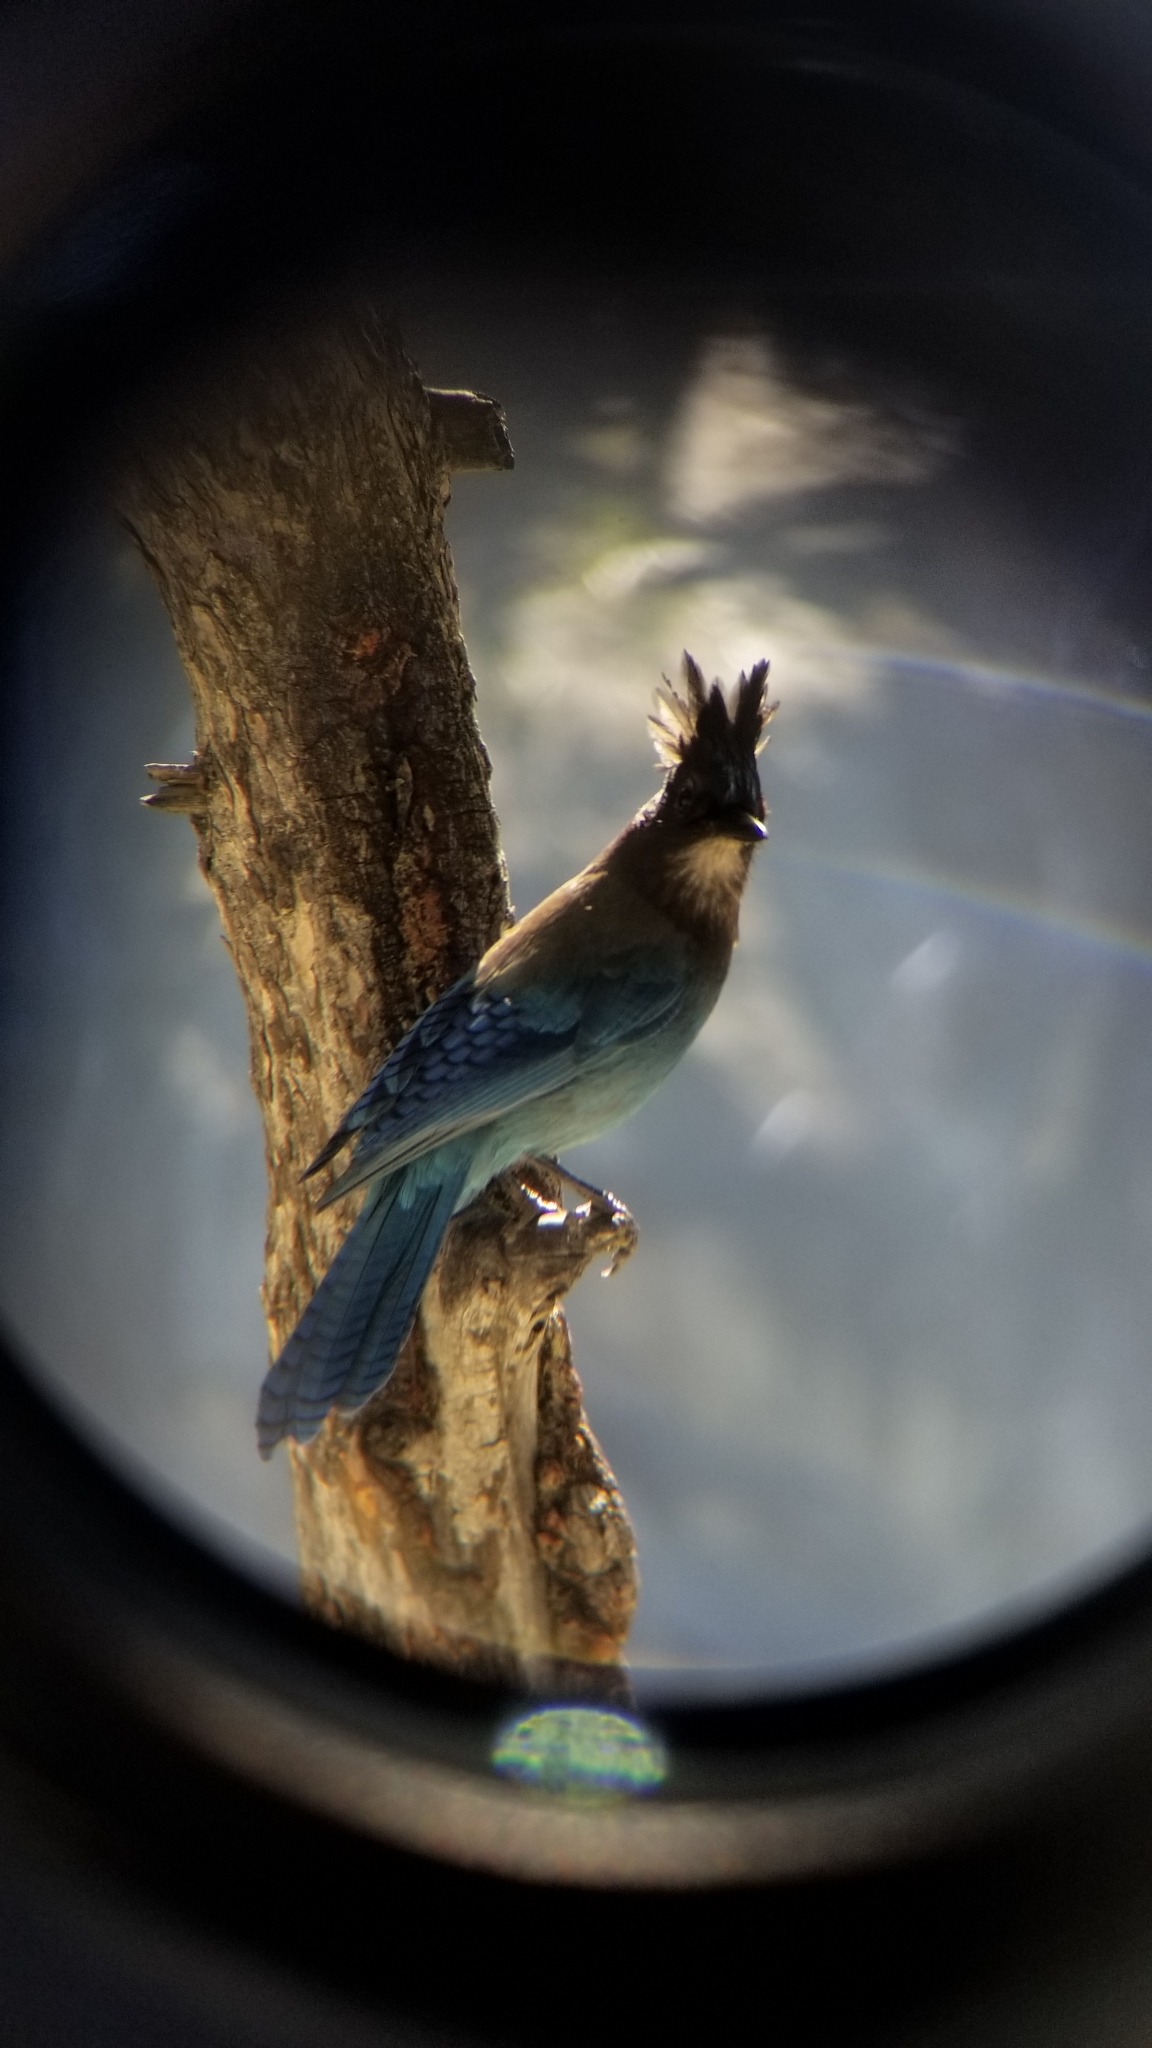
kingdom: Animalia
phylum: Chordata
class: Aves
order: Passeriformes
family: Corvidae
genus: Cyanocitta
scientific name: Cyanocitta stelleri
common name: Steller's jay
